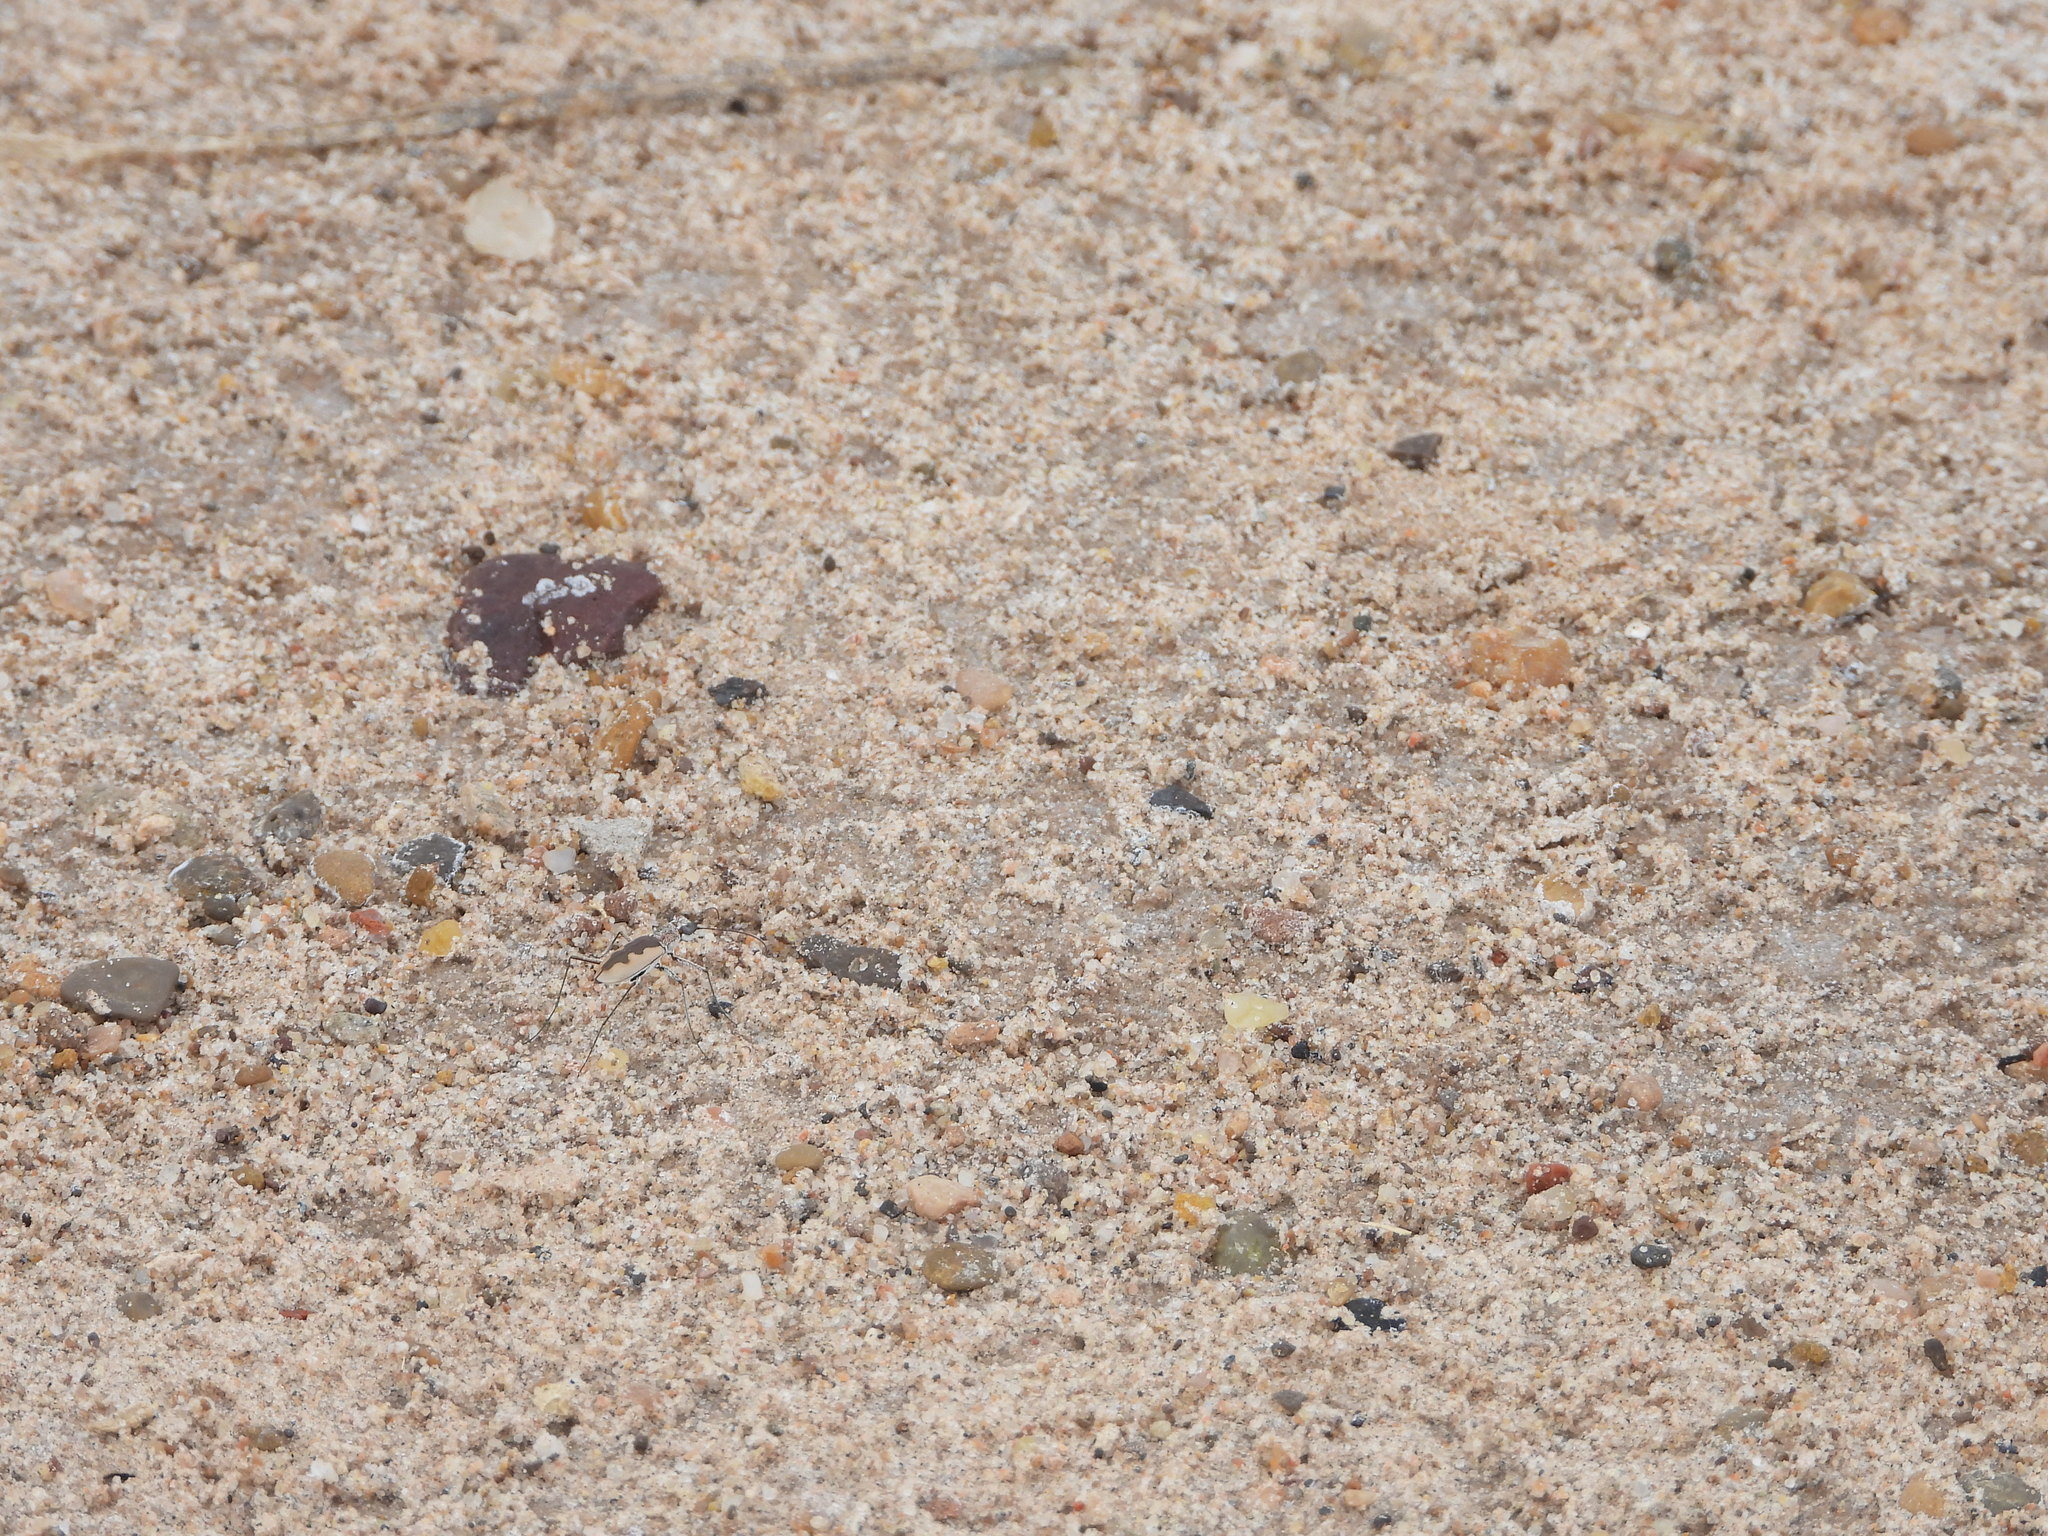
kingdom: Animalia
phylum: Arthropoda
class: Insecta
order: Coleoptera
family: Carabidae
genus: Eunota
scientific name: Eunota togata
